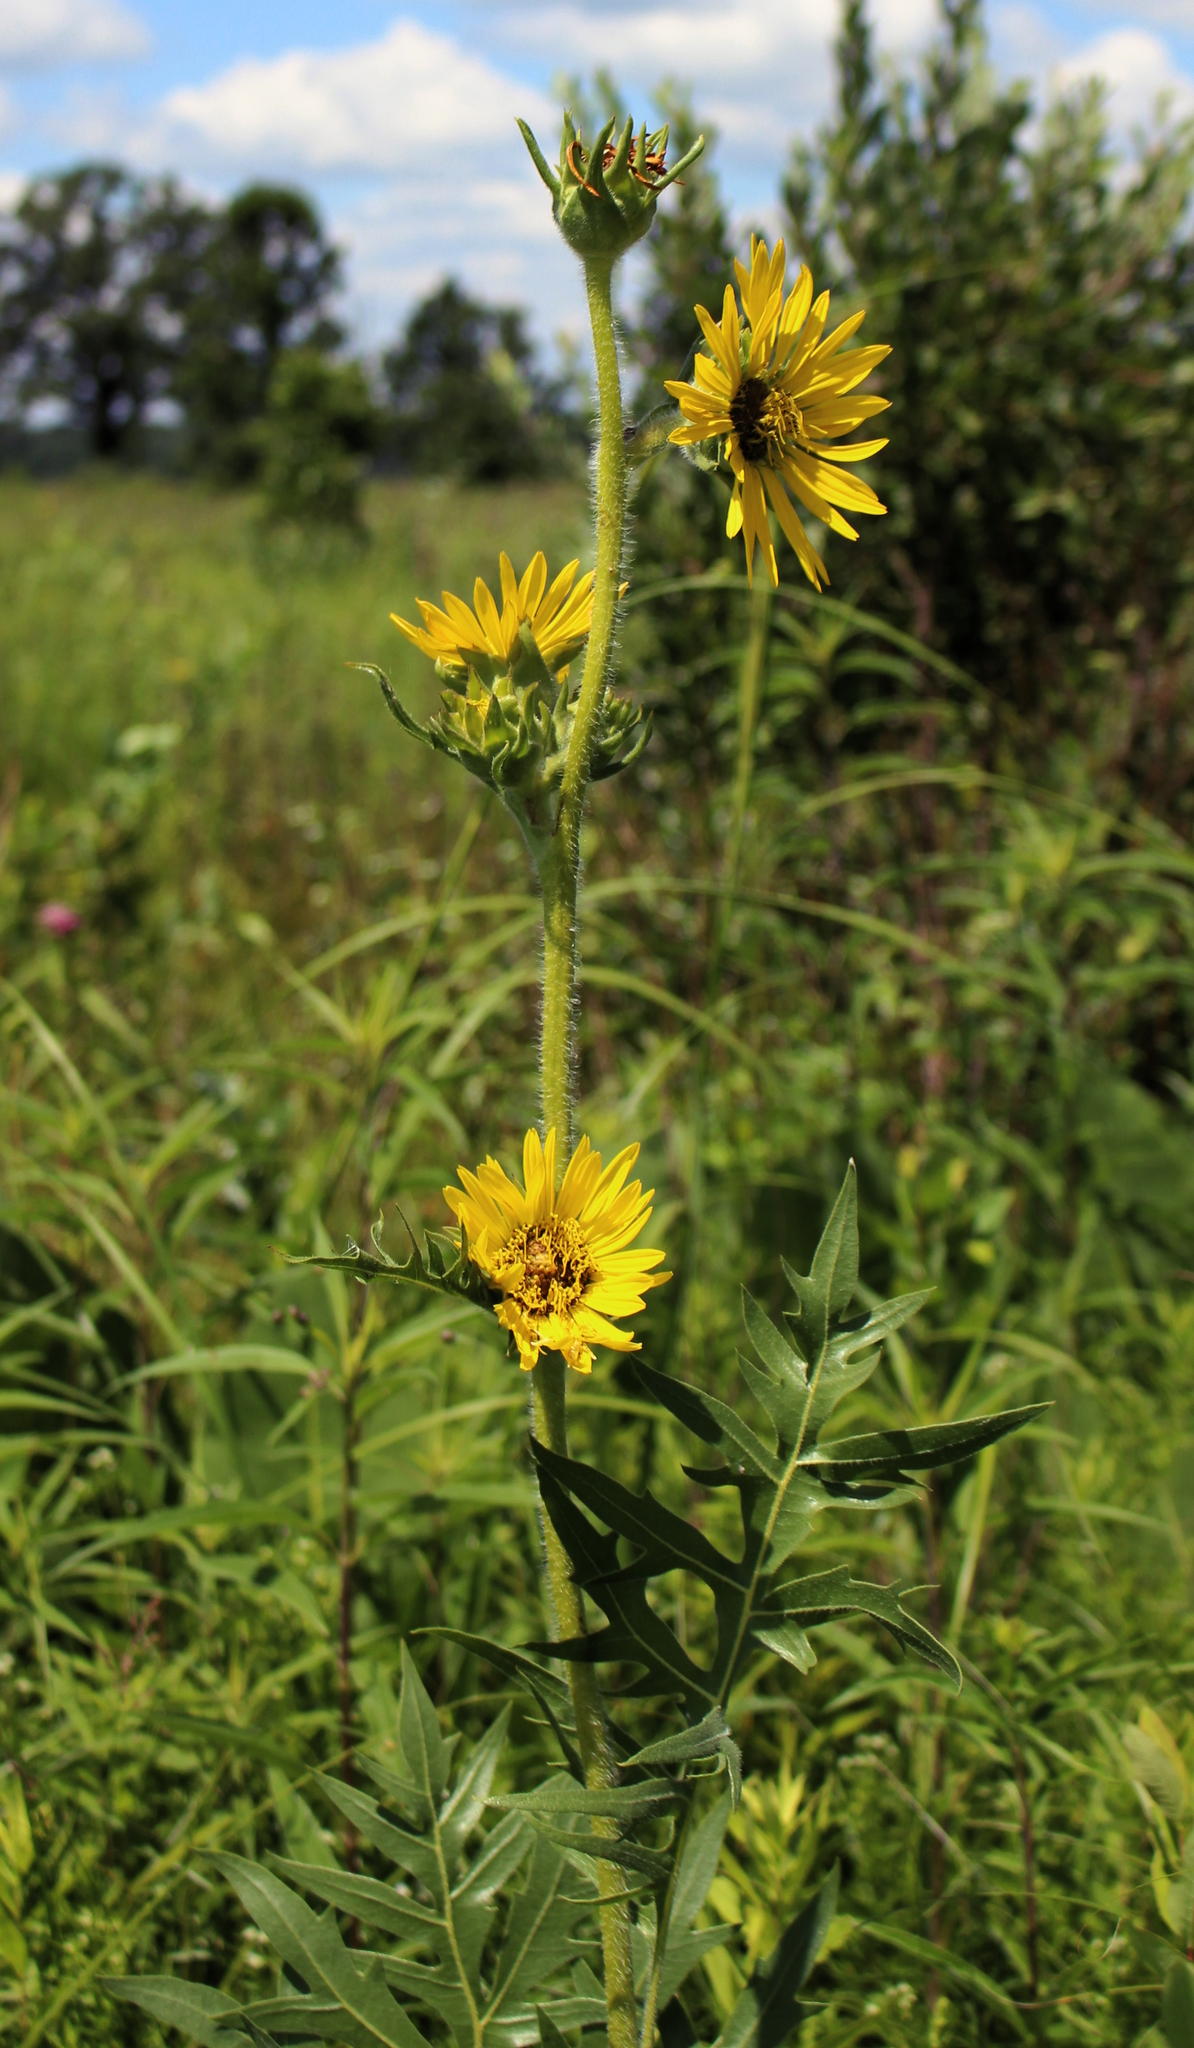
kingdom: Plantae
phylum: Tracheophyta
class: Magnoliopsida
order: Asterales
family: Asteraceae
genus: Silphium
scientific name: Silphium laciniatum
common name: Polarplant
